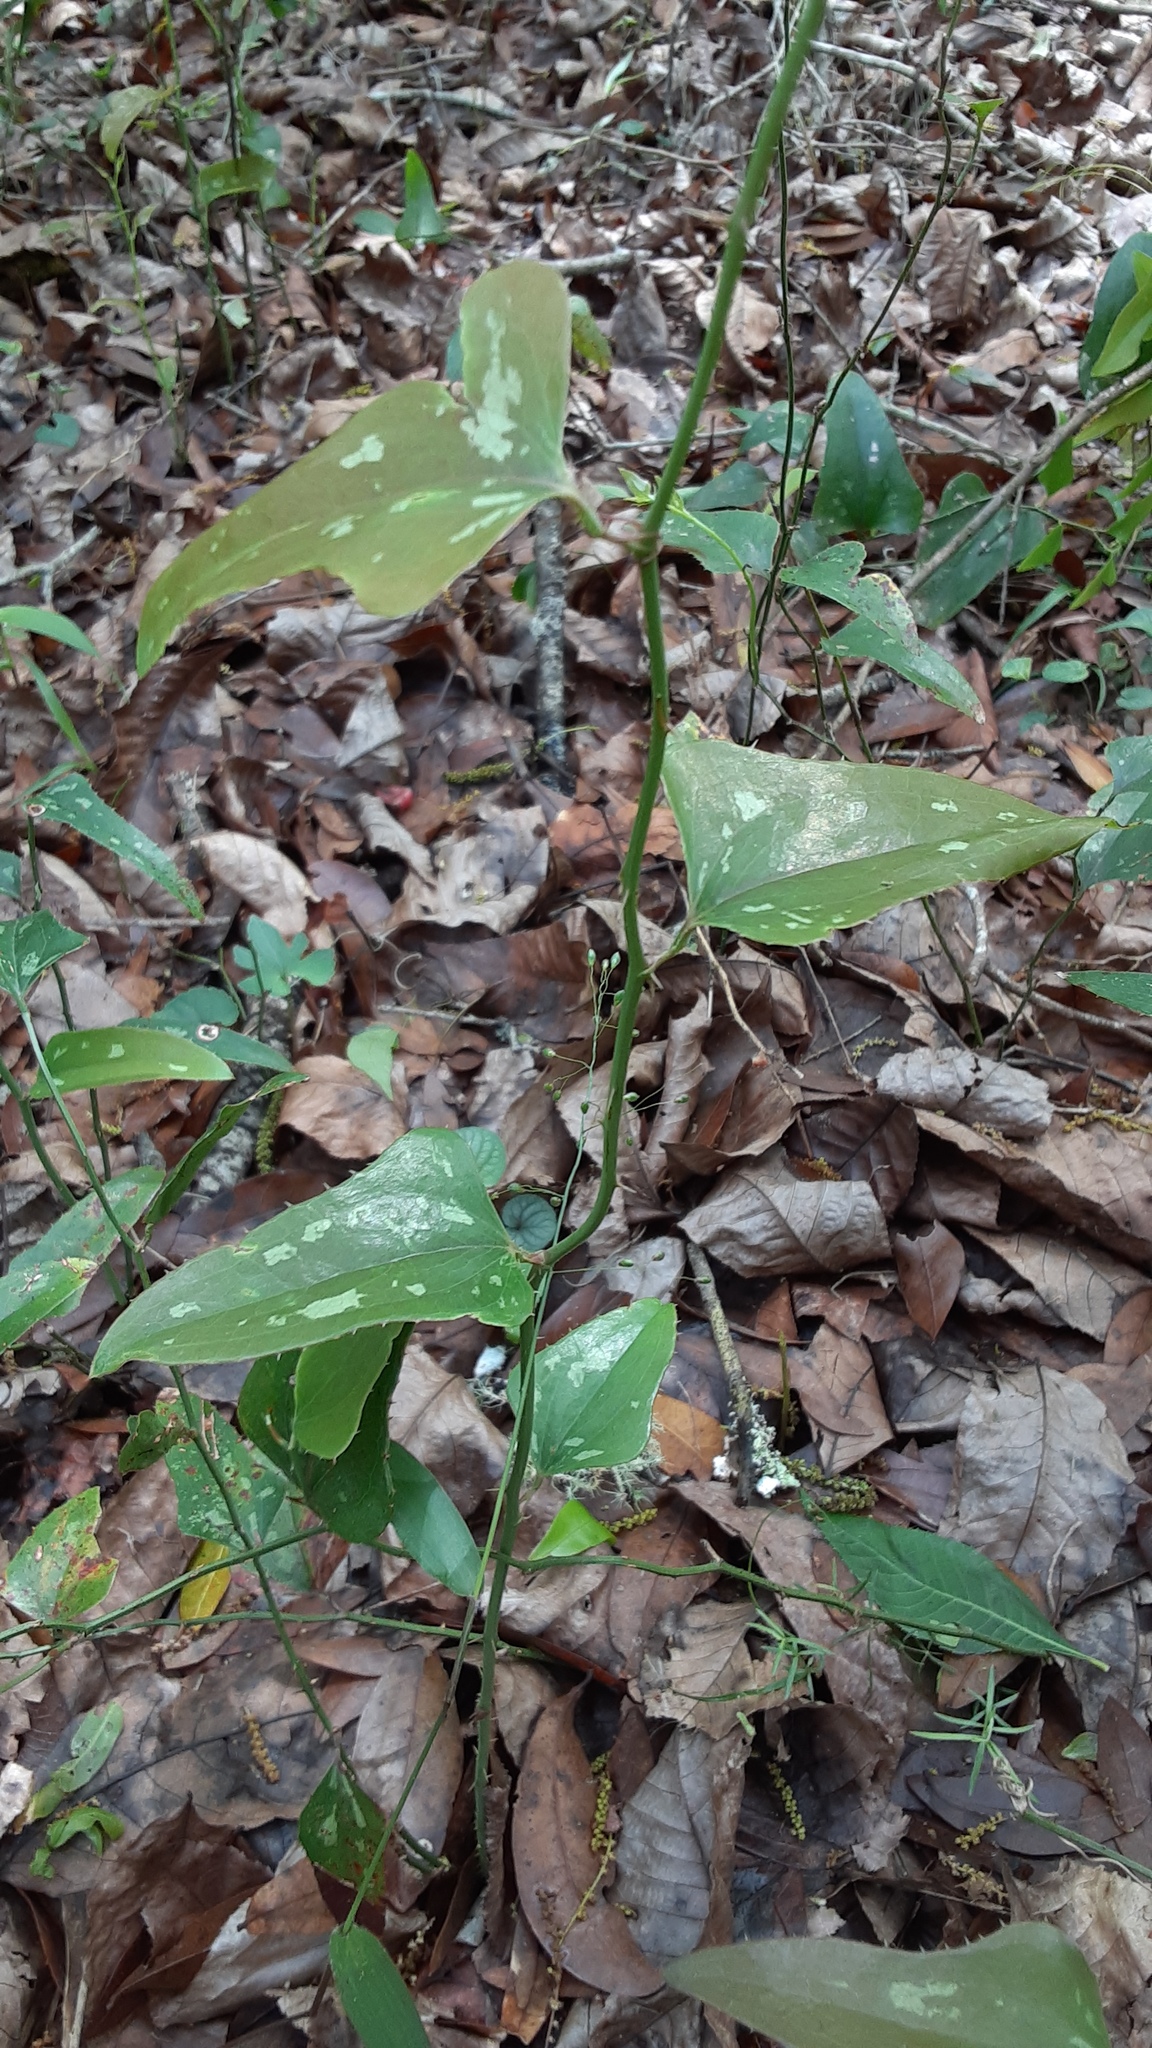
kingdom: Plantae
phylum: Tracheophyta
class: Liliopsida
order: Liliales
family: Smilacaceae
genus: Smilax
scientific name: Smilax bona-nox
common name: Catbrier
